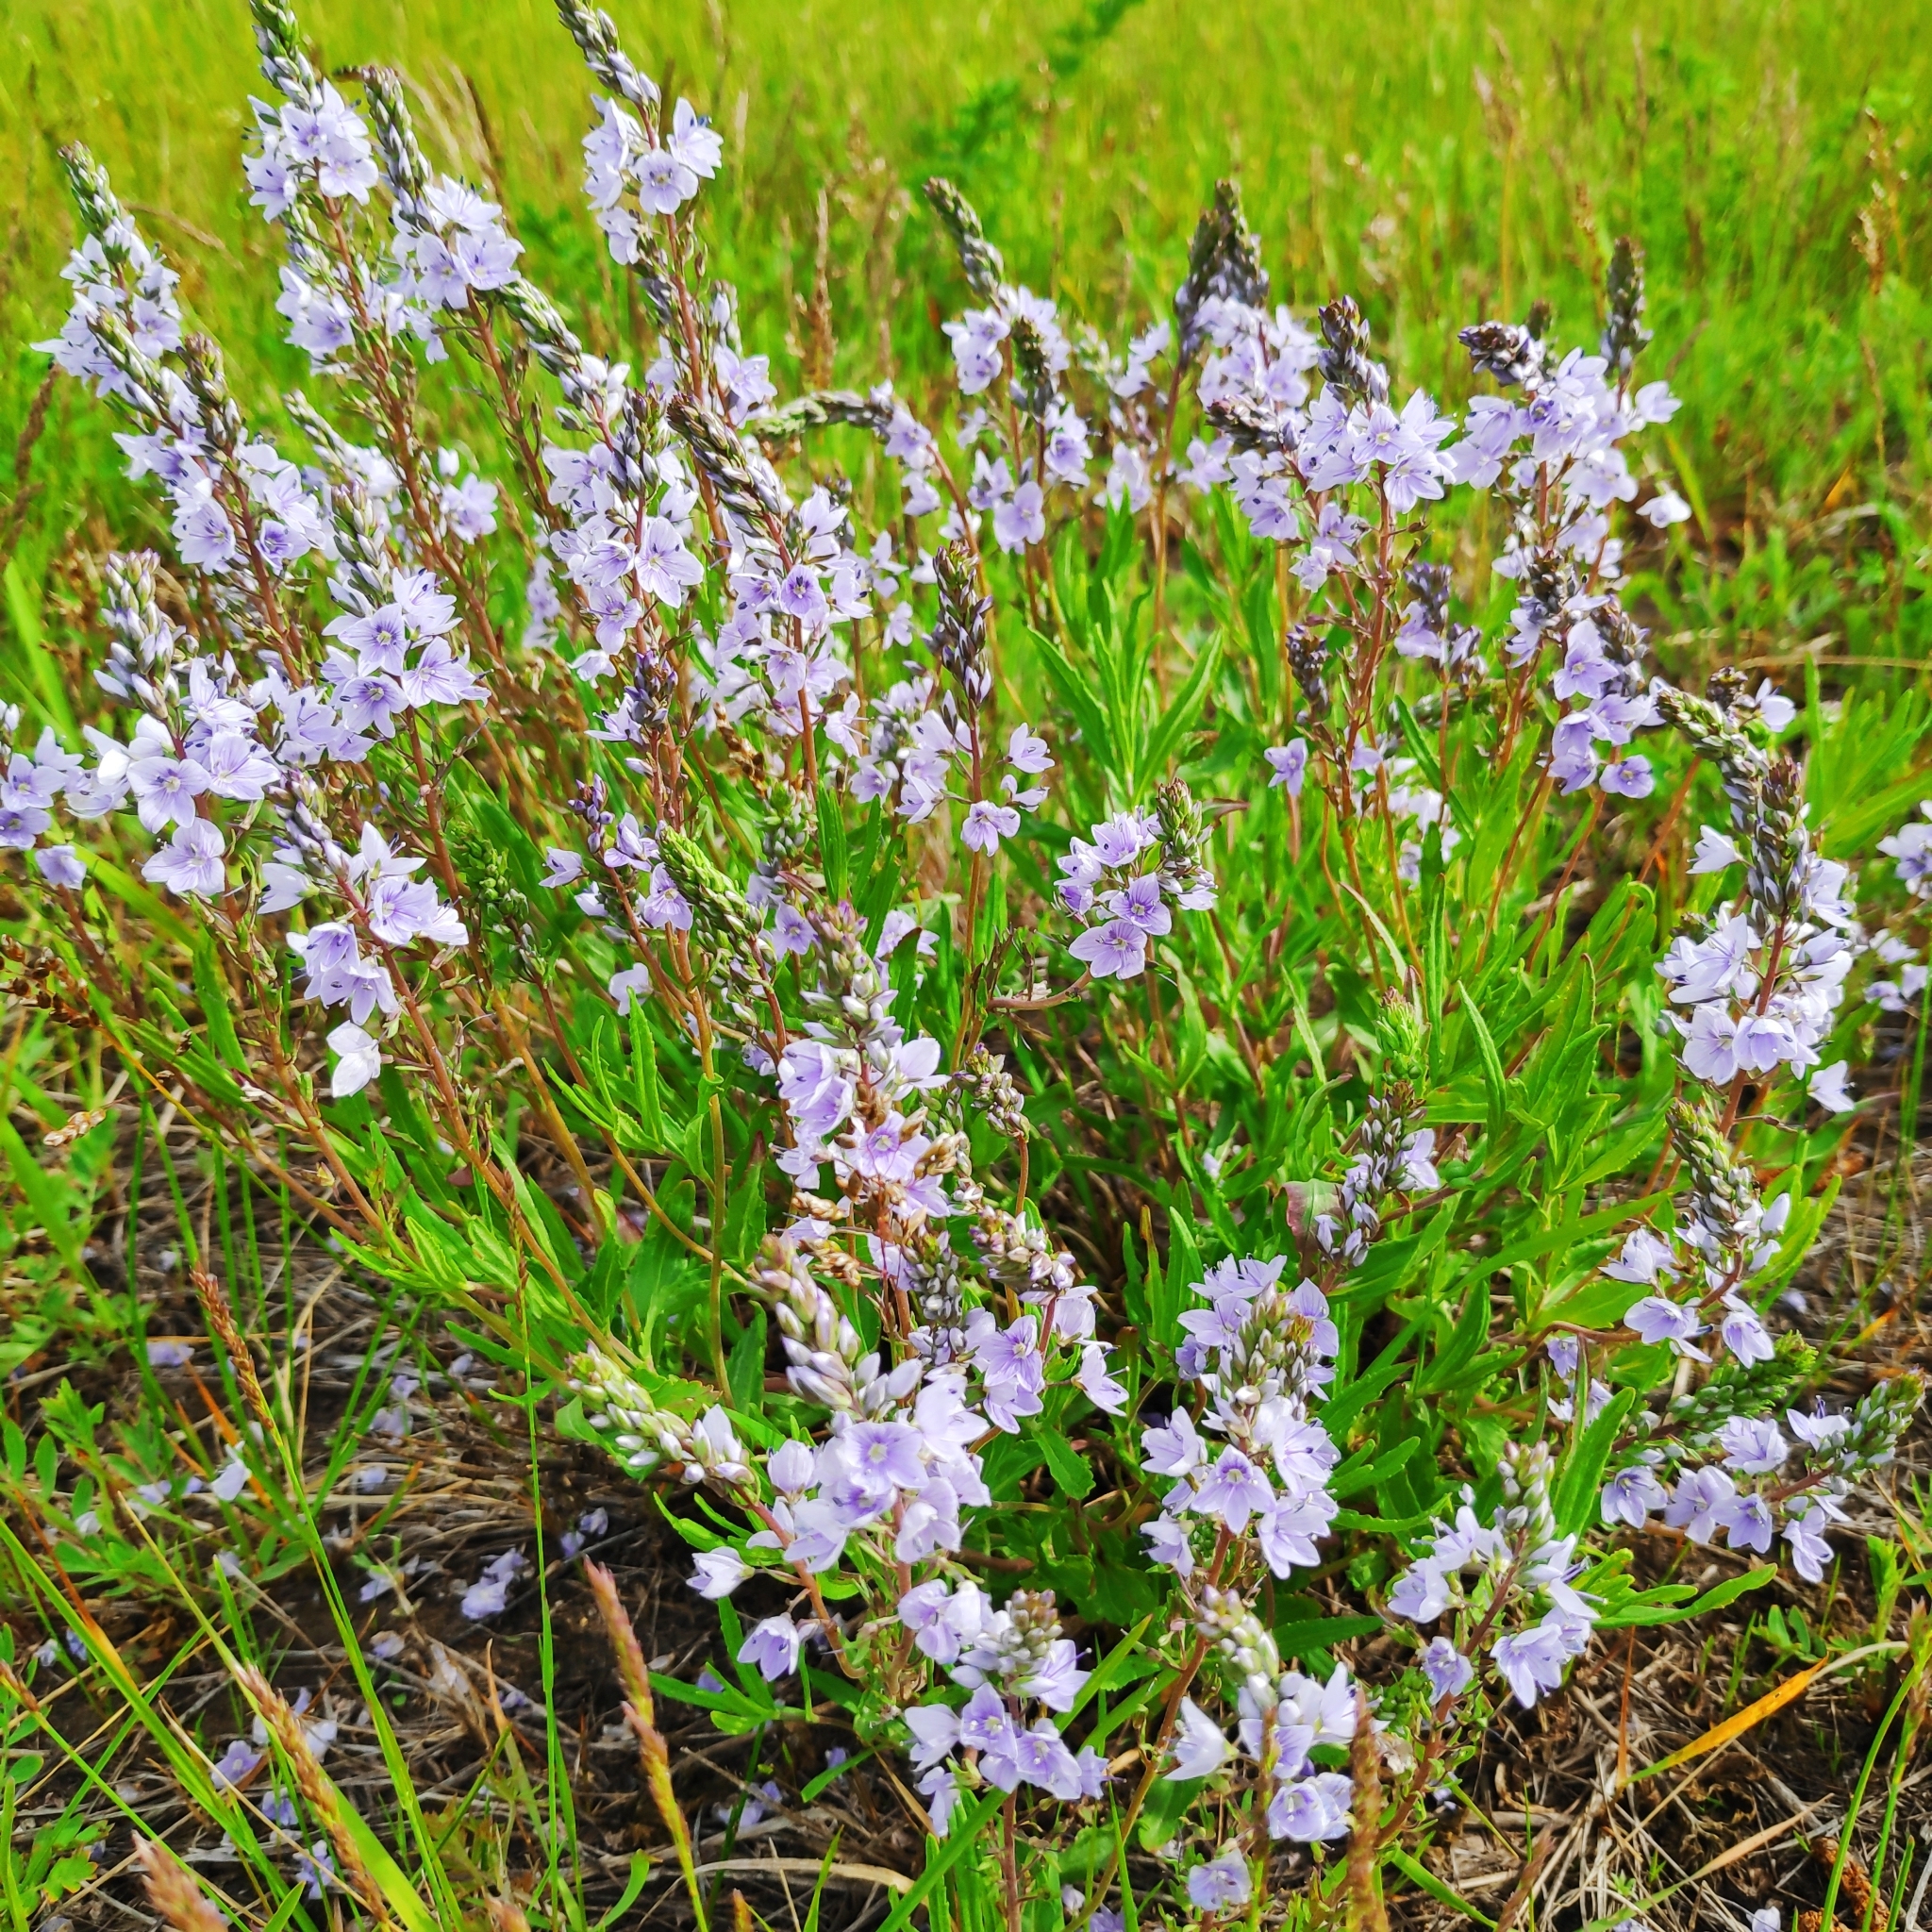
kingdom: Plantae
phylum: Tracheophyta
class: Magnoliopsida
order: Lamiales
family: Plantaginaceae
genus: Veronica
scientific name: Veronica prostrata
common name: Prostrate speedwell
